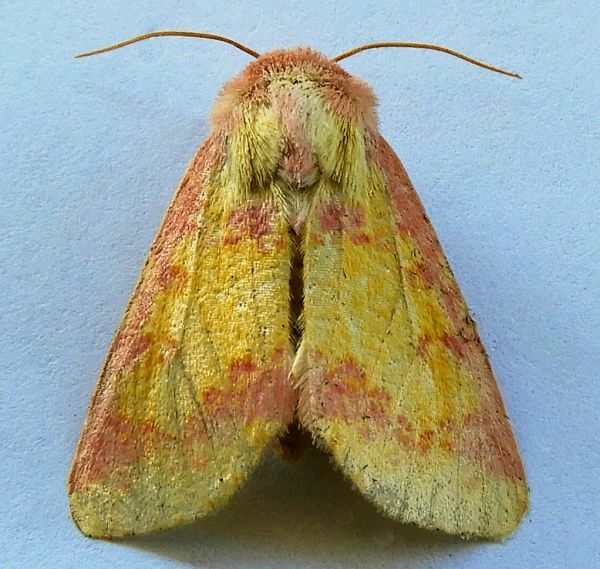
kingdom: Animalia
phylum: Arthropoda
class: Insecta
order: Lepidoptera
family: Noctuidae
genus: Psectrotarsia
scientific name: Psectrotarsia suavis
